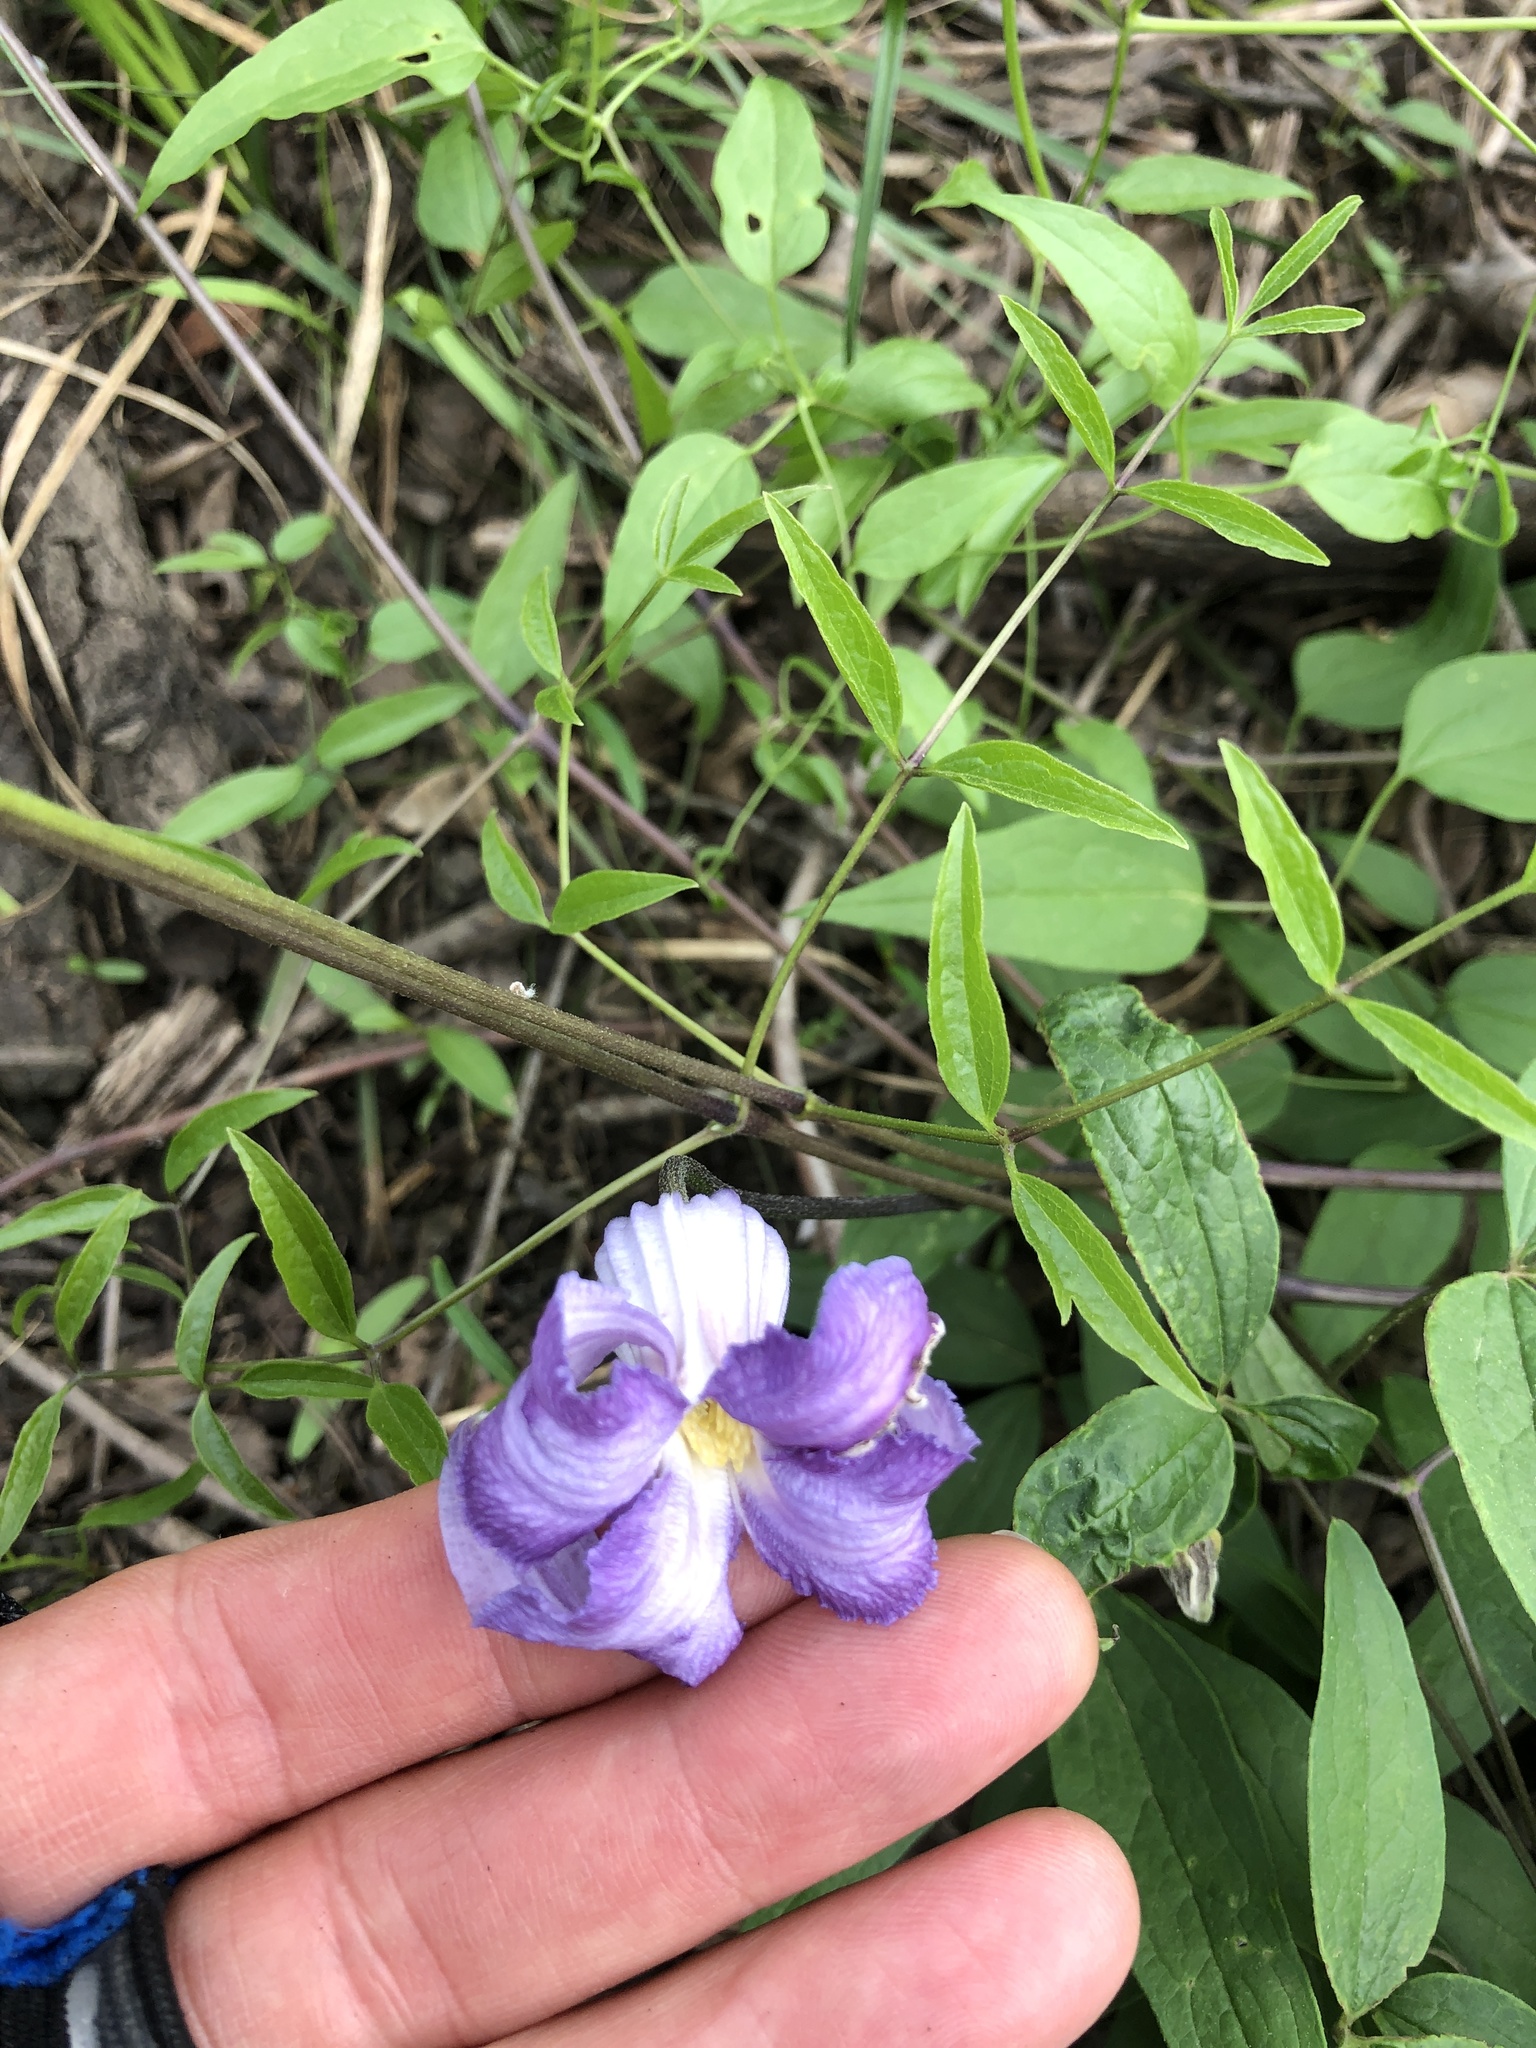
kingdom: Plantae
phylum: Tracheophyta
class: Magnoliopsida
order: Ranunculales
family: Ranunculaceae
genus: Clematis
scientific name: Clematis crispa
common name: Curly clematis
